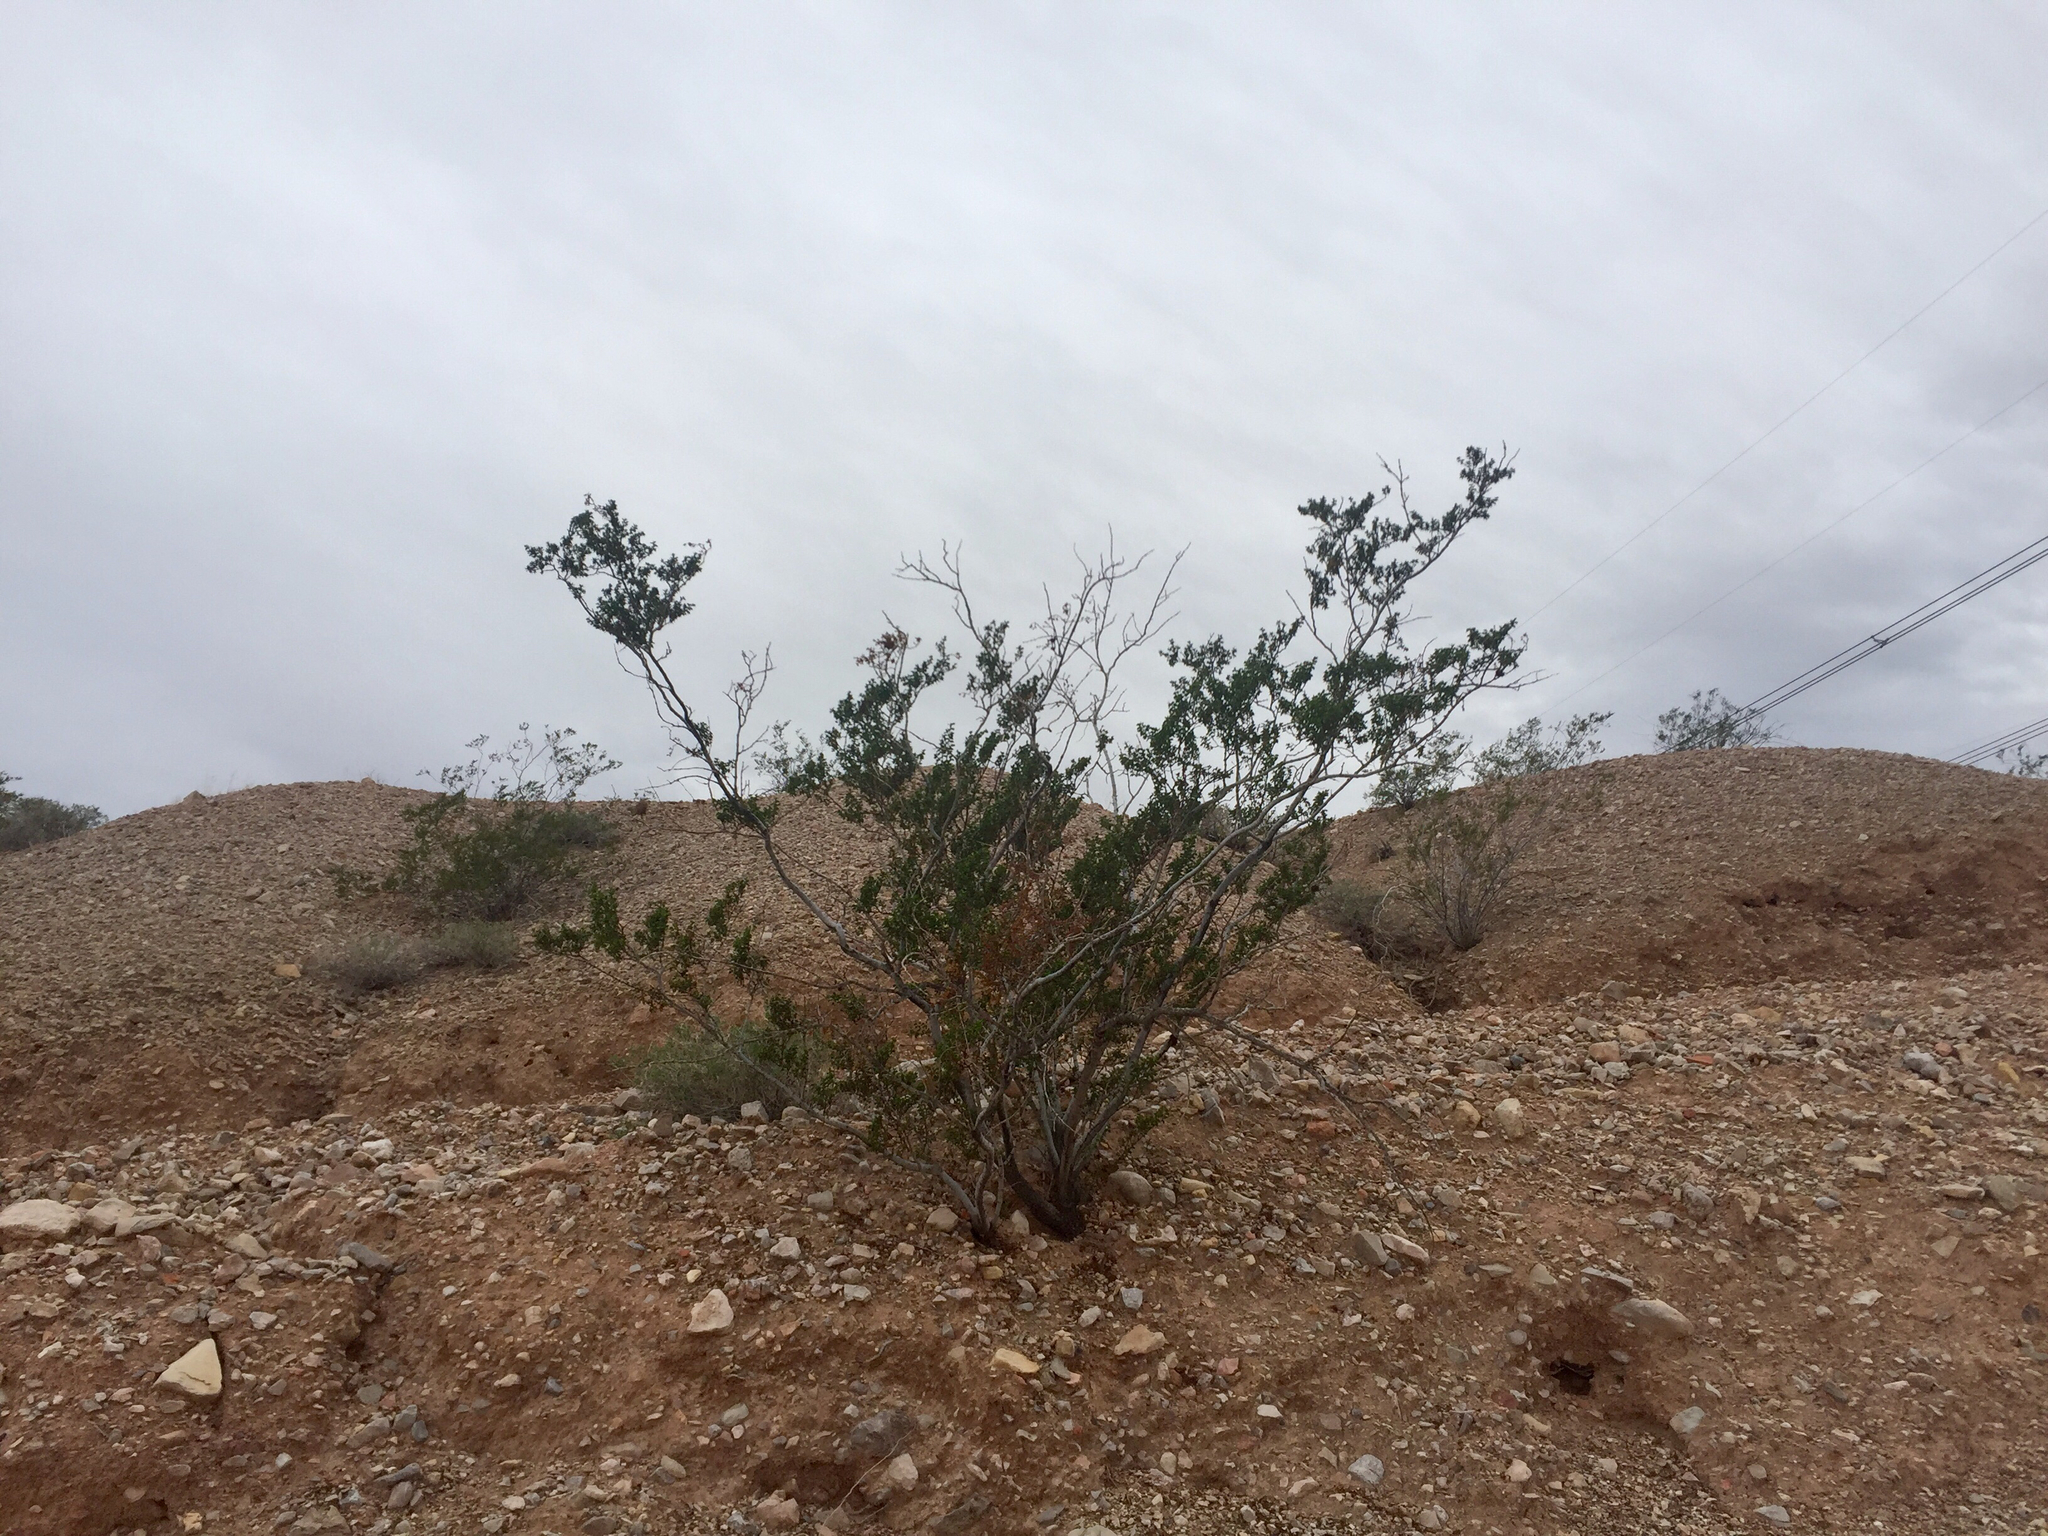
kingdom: Plantae
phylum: Tracheophyta
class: Magnoliopsida
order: Zygophyllales
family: Zygophyllaceae
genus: Larrea
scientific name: Larrea tridentata
